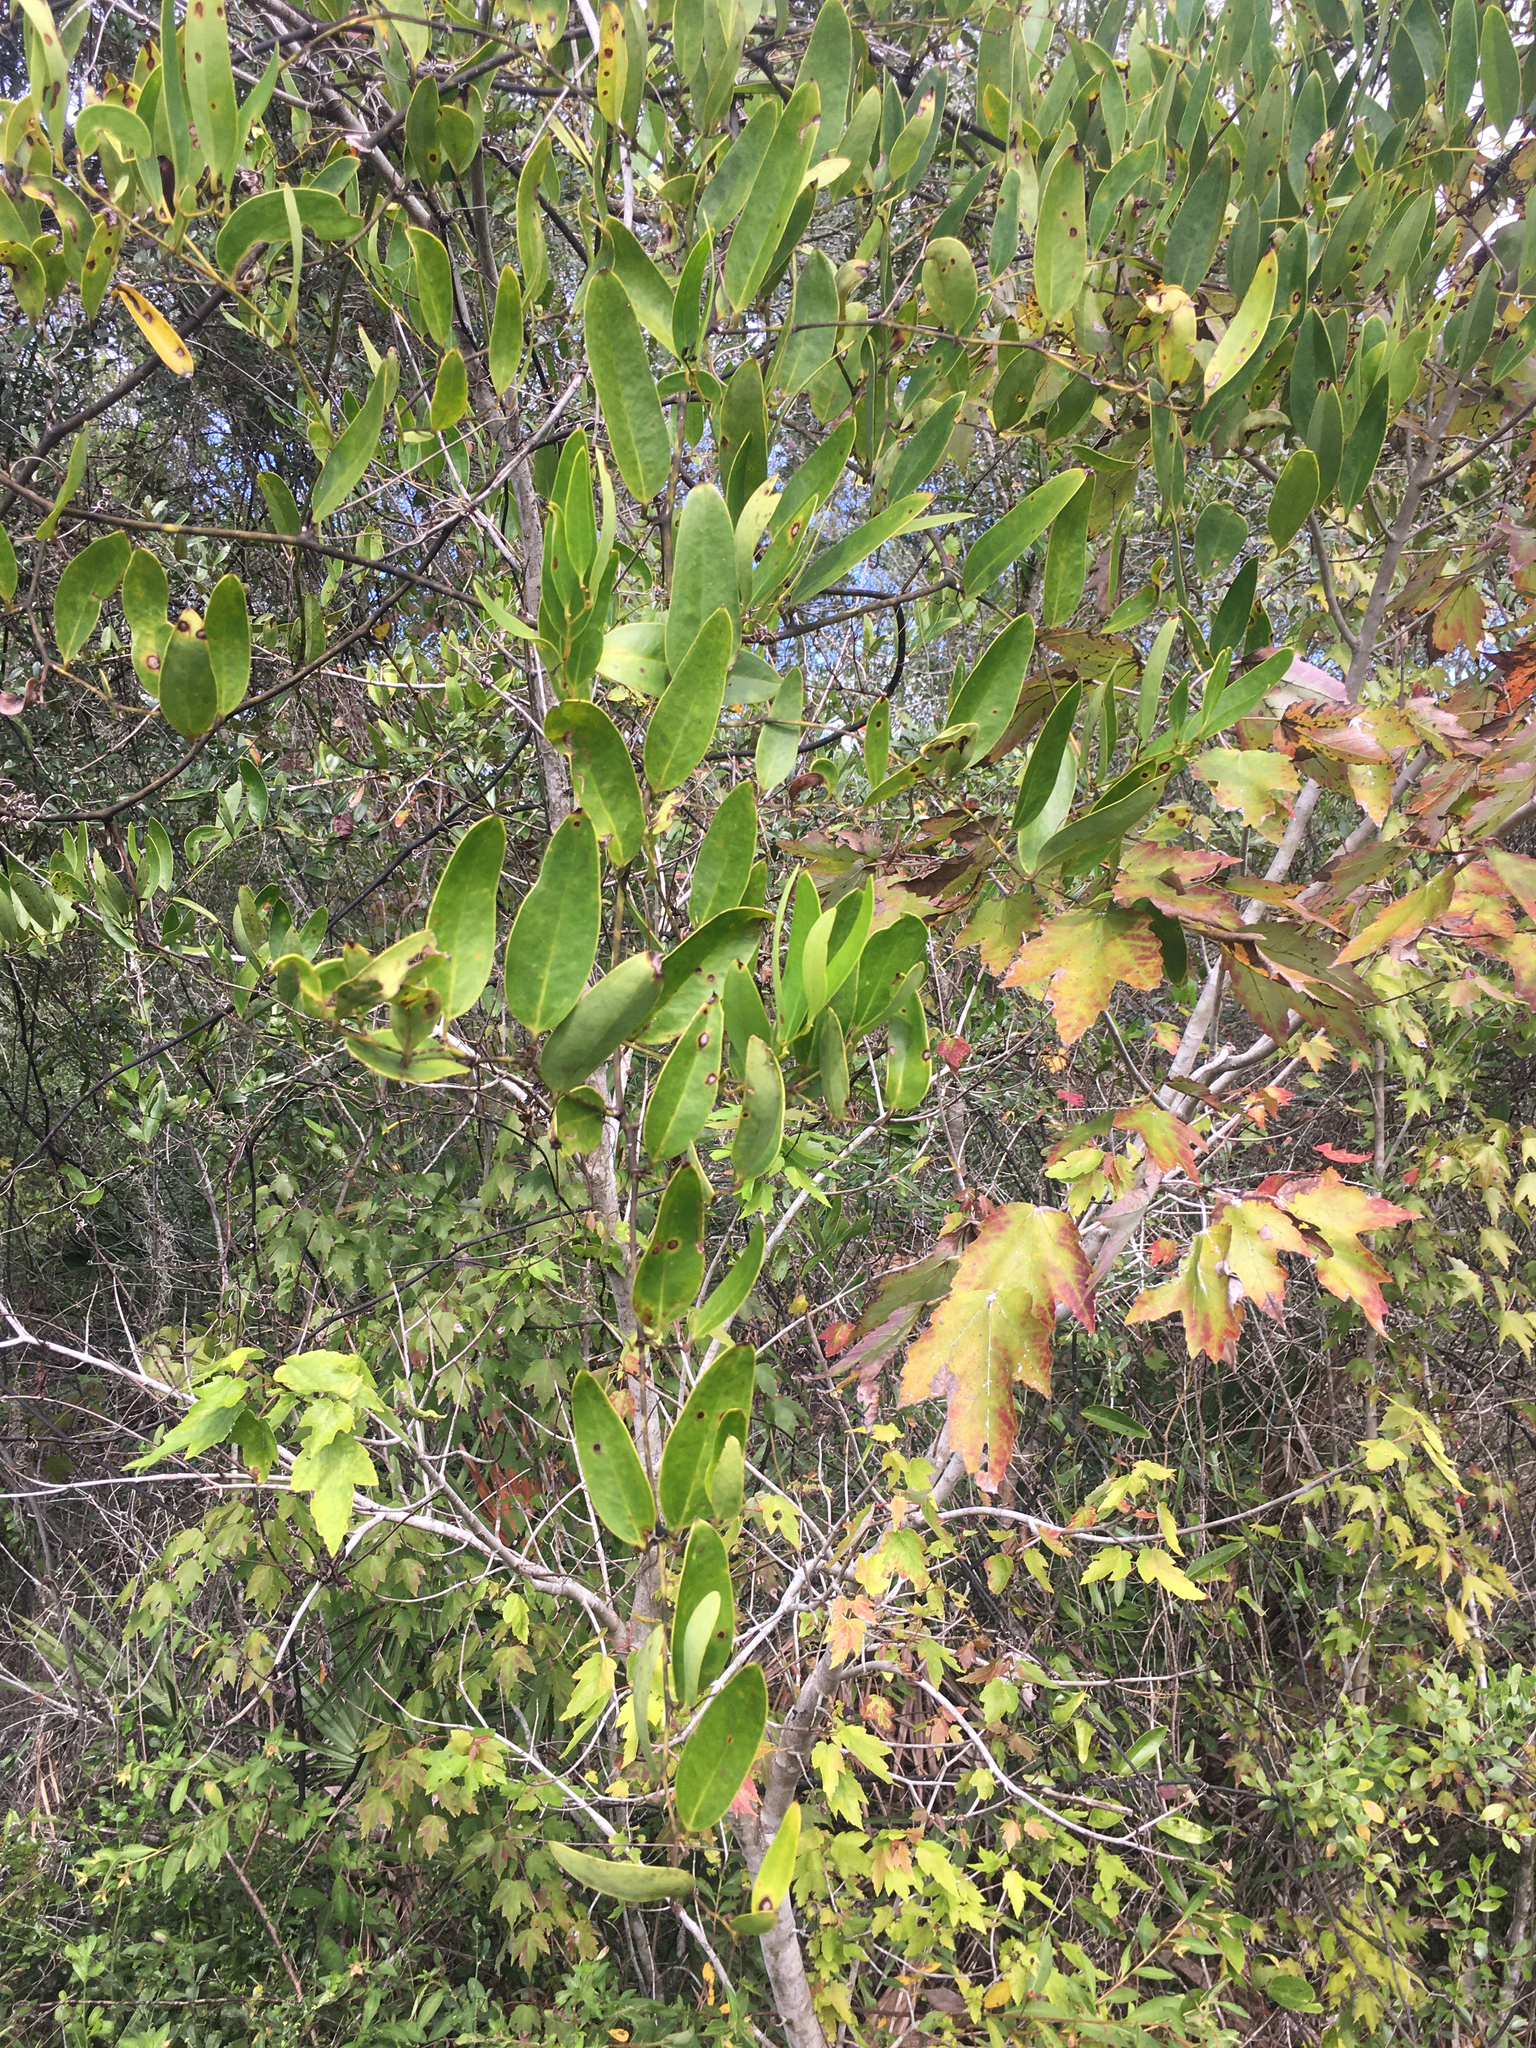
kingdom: Plantae
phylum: Tracheophyta
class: Liliopsida
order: Liliales
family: Smilacaceae
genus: Smilax
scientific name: Smilax laurifolia
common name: Bamboovine
